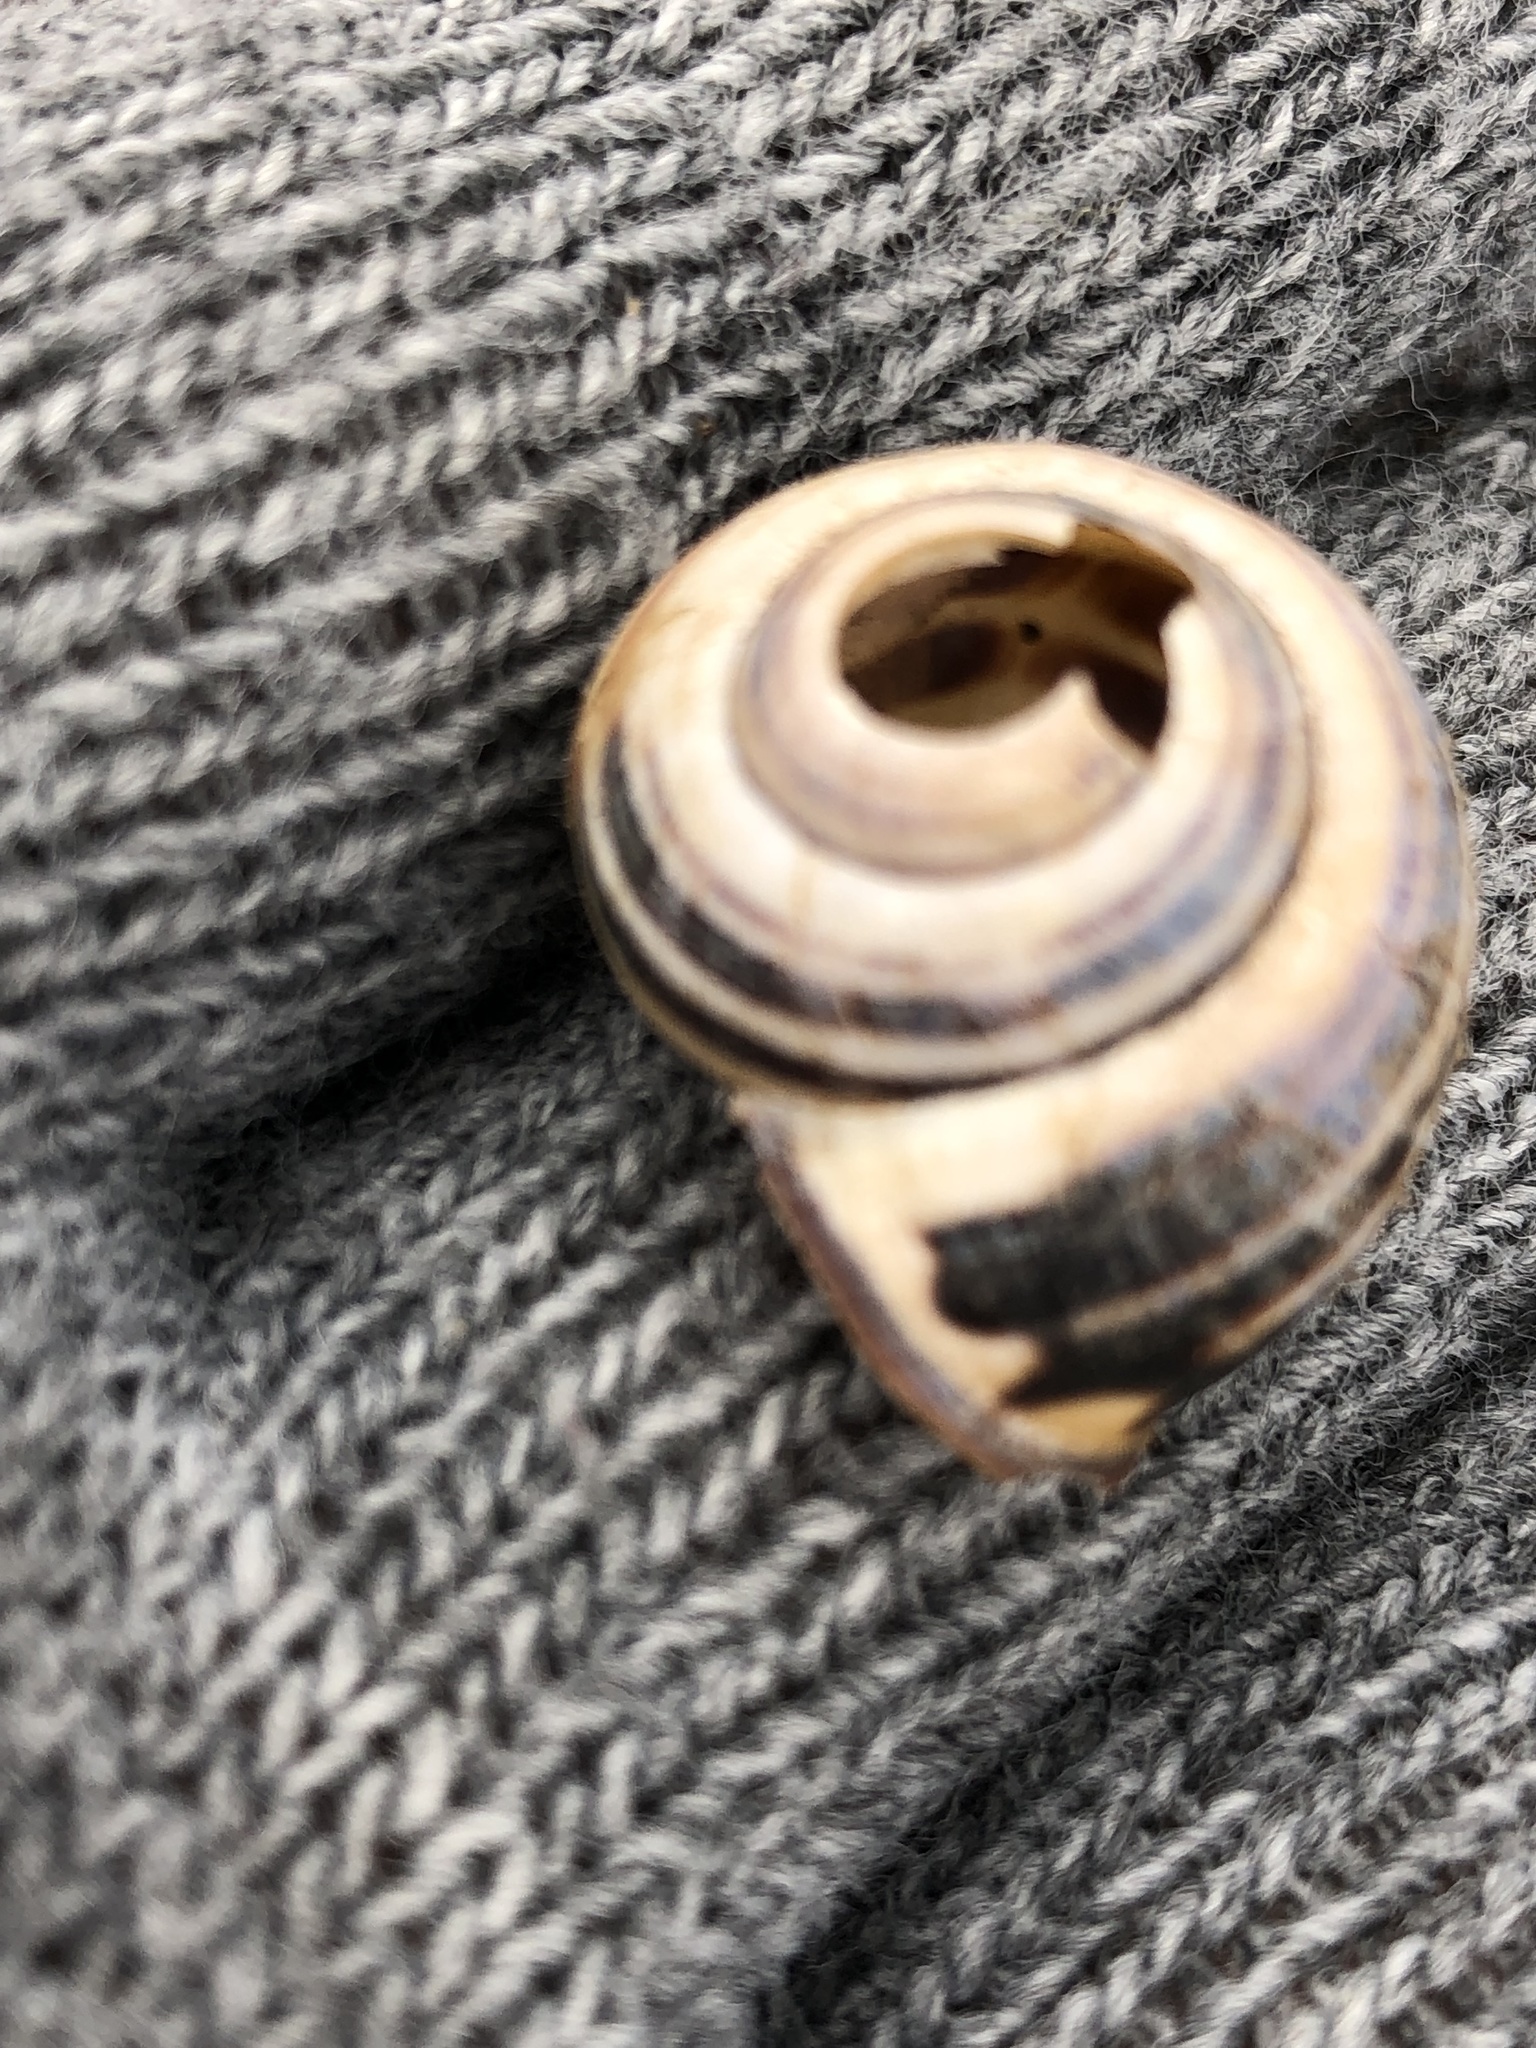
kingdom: Animalia
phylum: Mollusca
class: Gastropoda
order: Stylommatophora
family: Helicidae
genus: Cepaea
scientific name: Cepaea nemoralis
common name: Grovesnail
